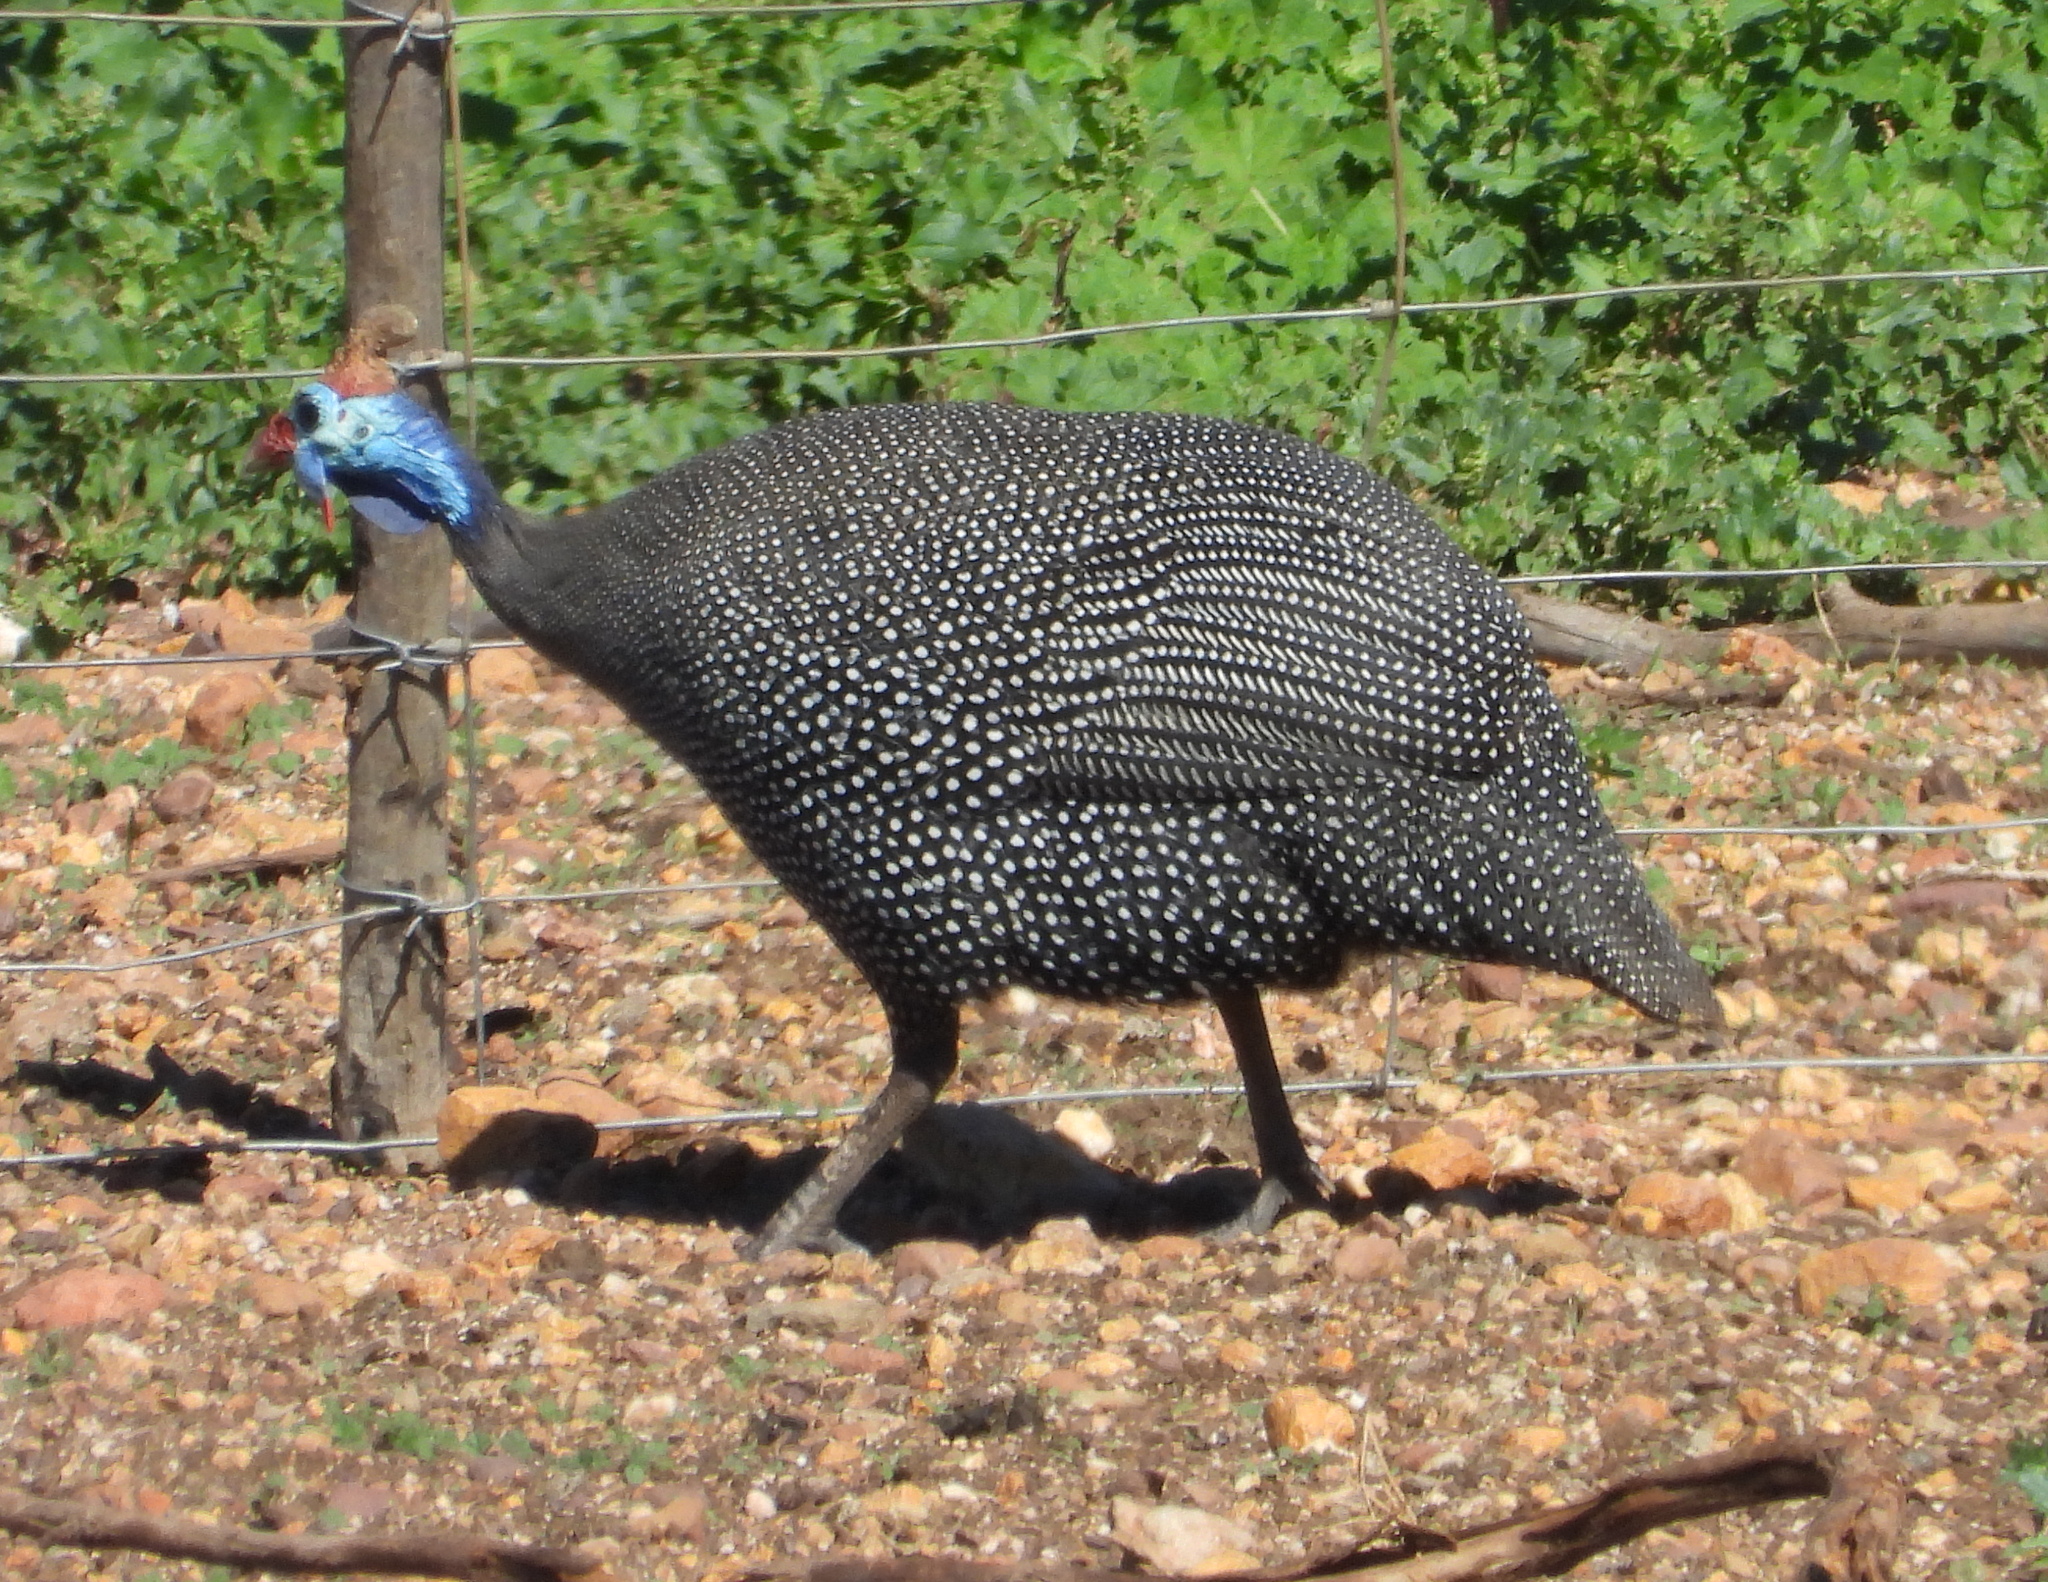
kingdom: Animalia
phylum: Chordata
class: Aves
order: Galliformes
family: Numididae
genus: Numida
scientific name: Numida meleagris
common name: Helmeted guineafowl
